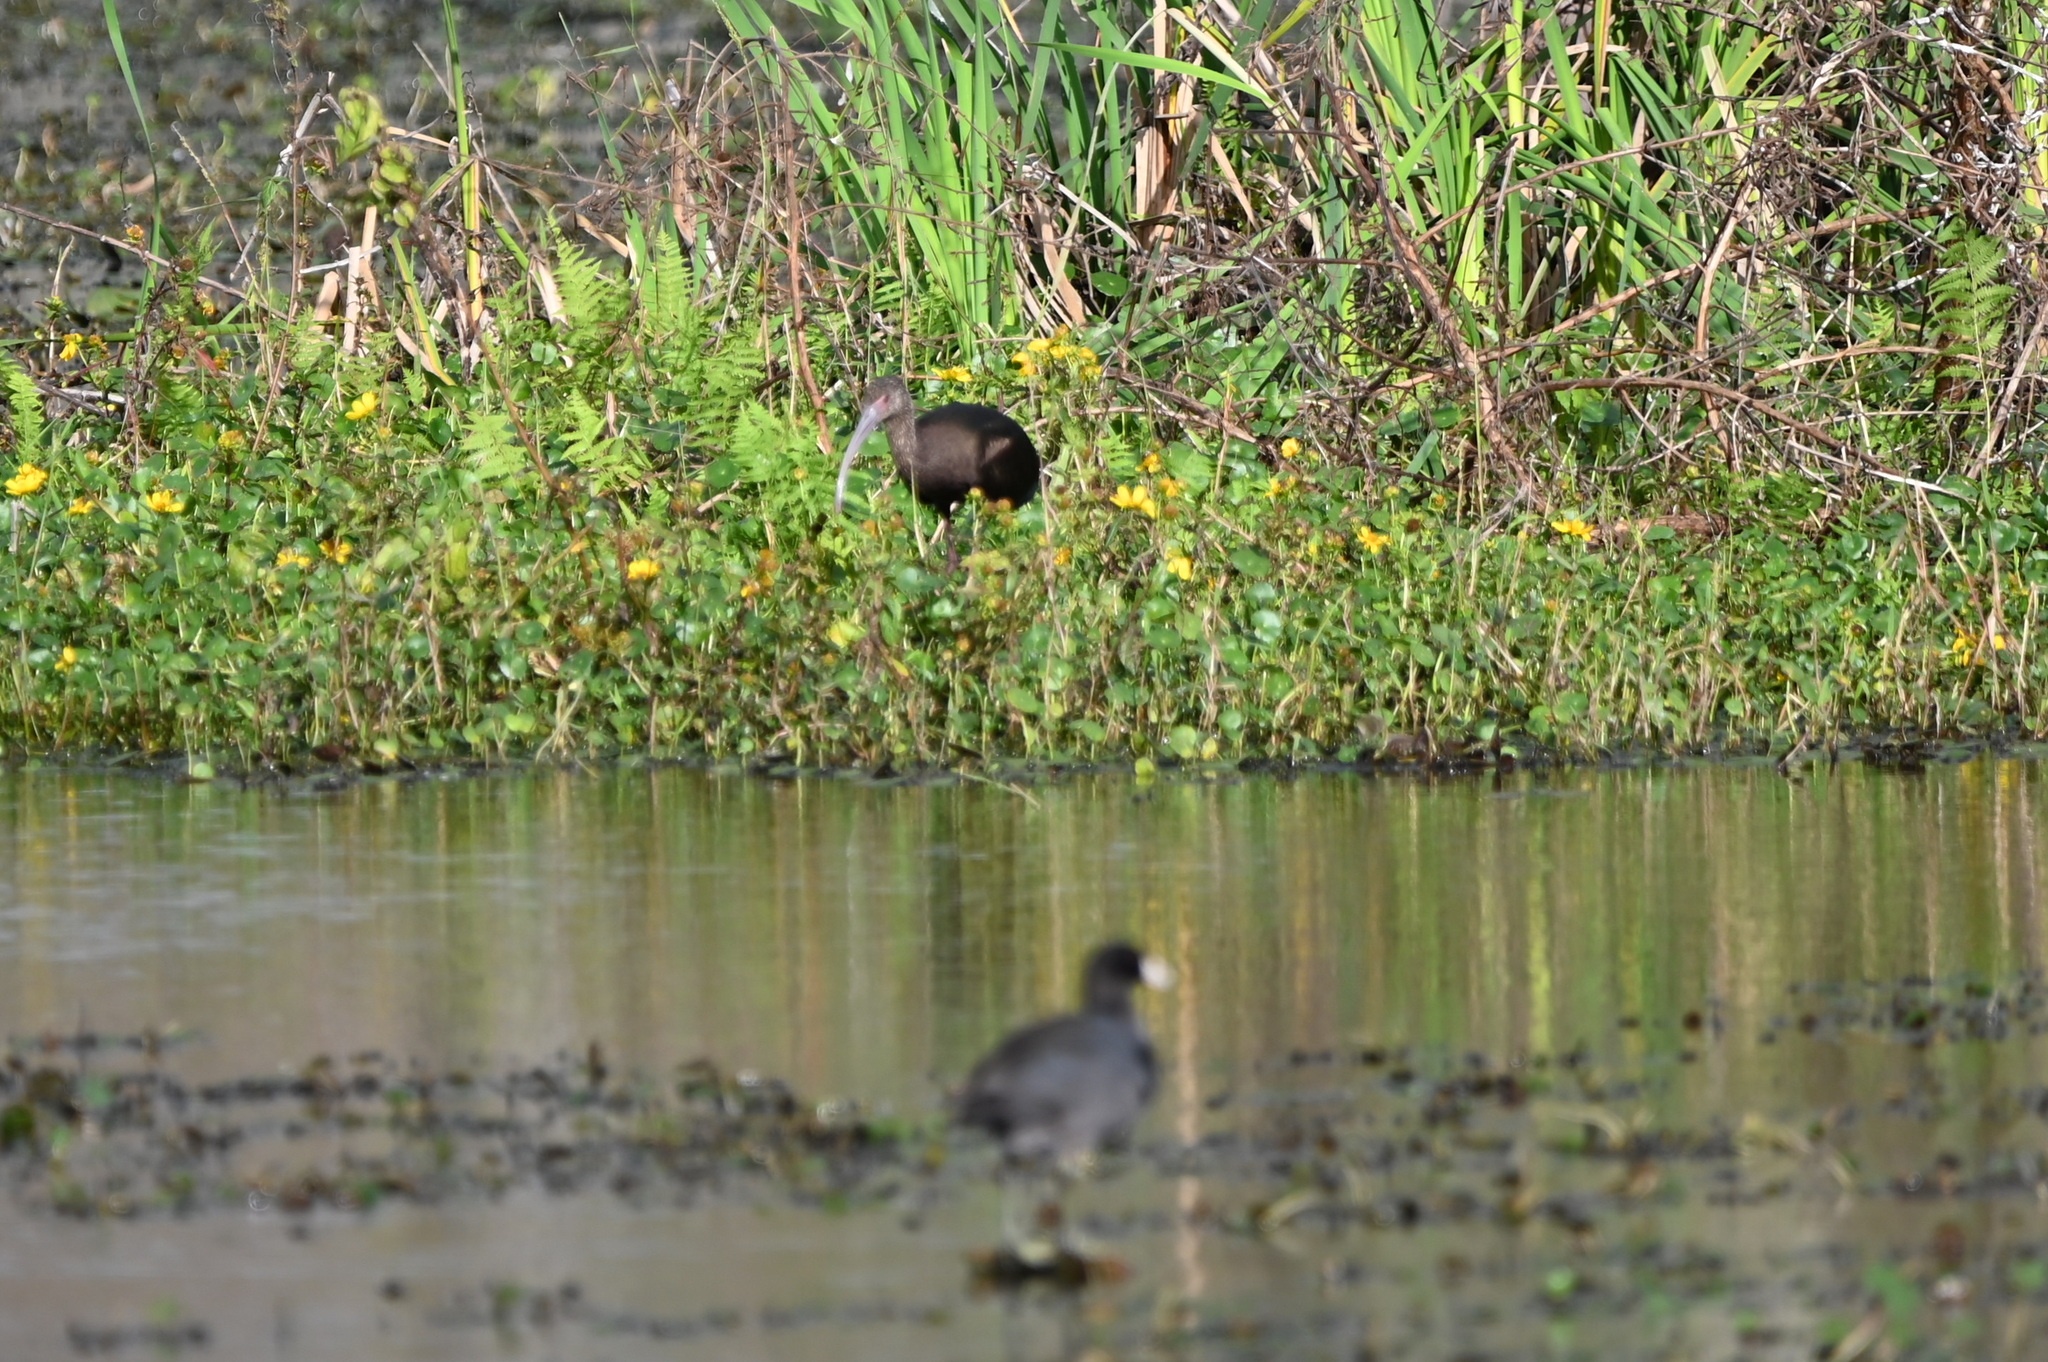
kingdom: Animalia
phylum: Chordata
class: Aves
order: Pelecaniformes
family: Threskiornithidae
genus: Plegadis
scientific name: Plegadis chihi
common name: White-faced ibis
